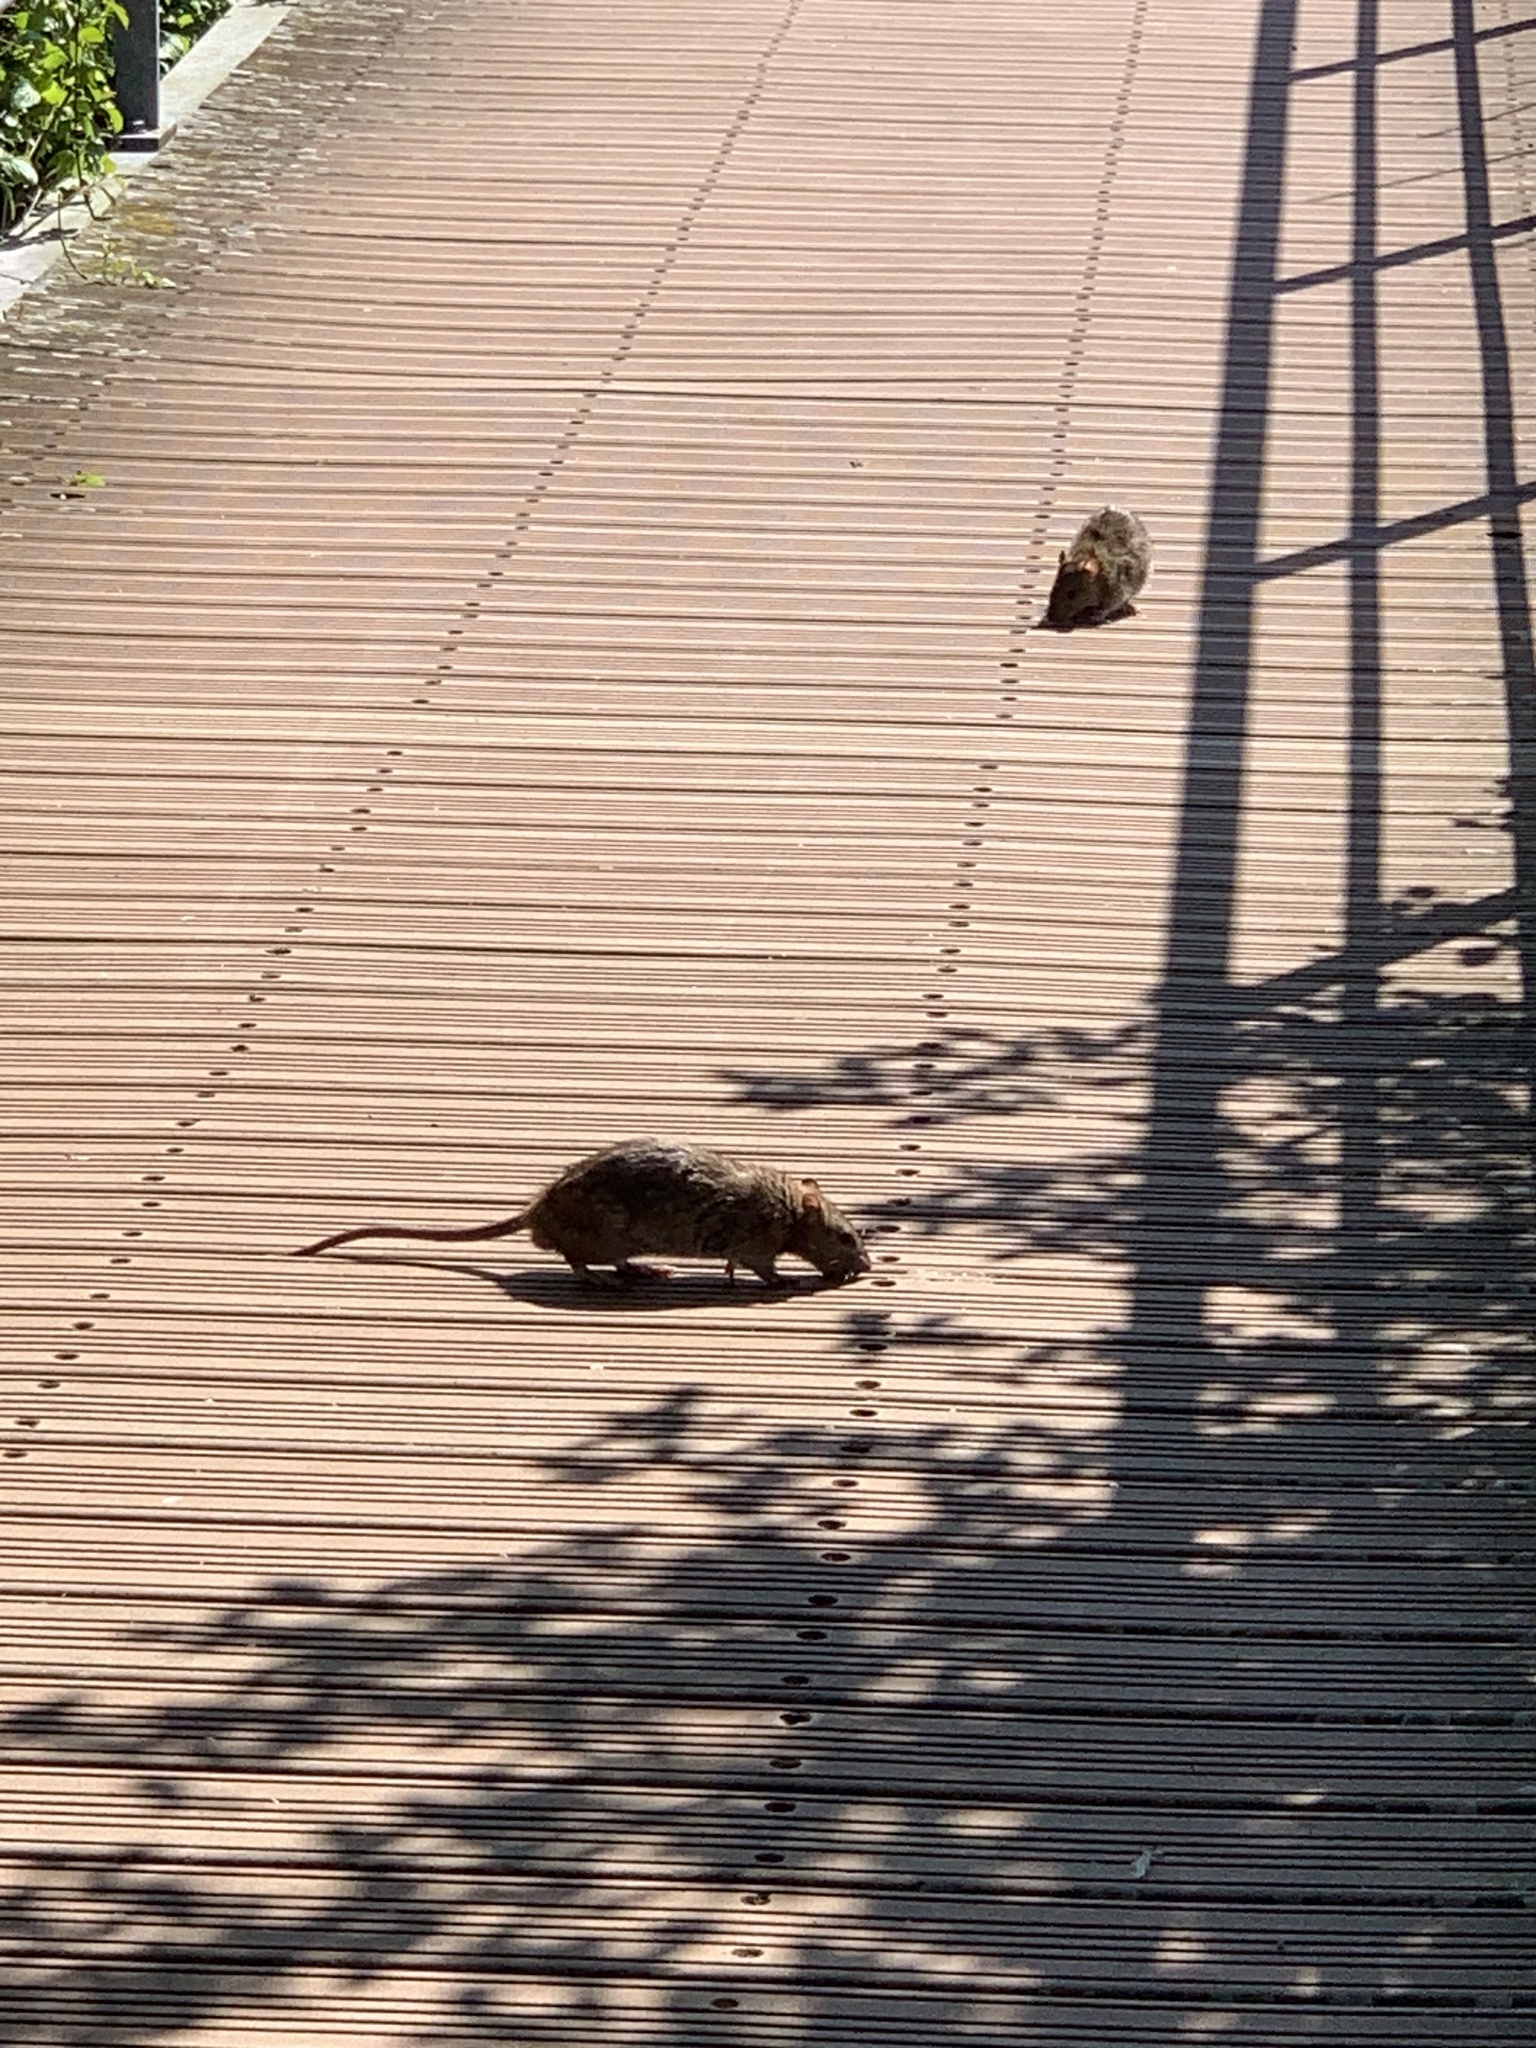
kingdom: Animalia
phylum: Chordata
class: Mammalia
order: Rodentia
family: Muridae
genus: Rattus
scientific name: Rattus norvegicus
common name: Brown rat
